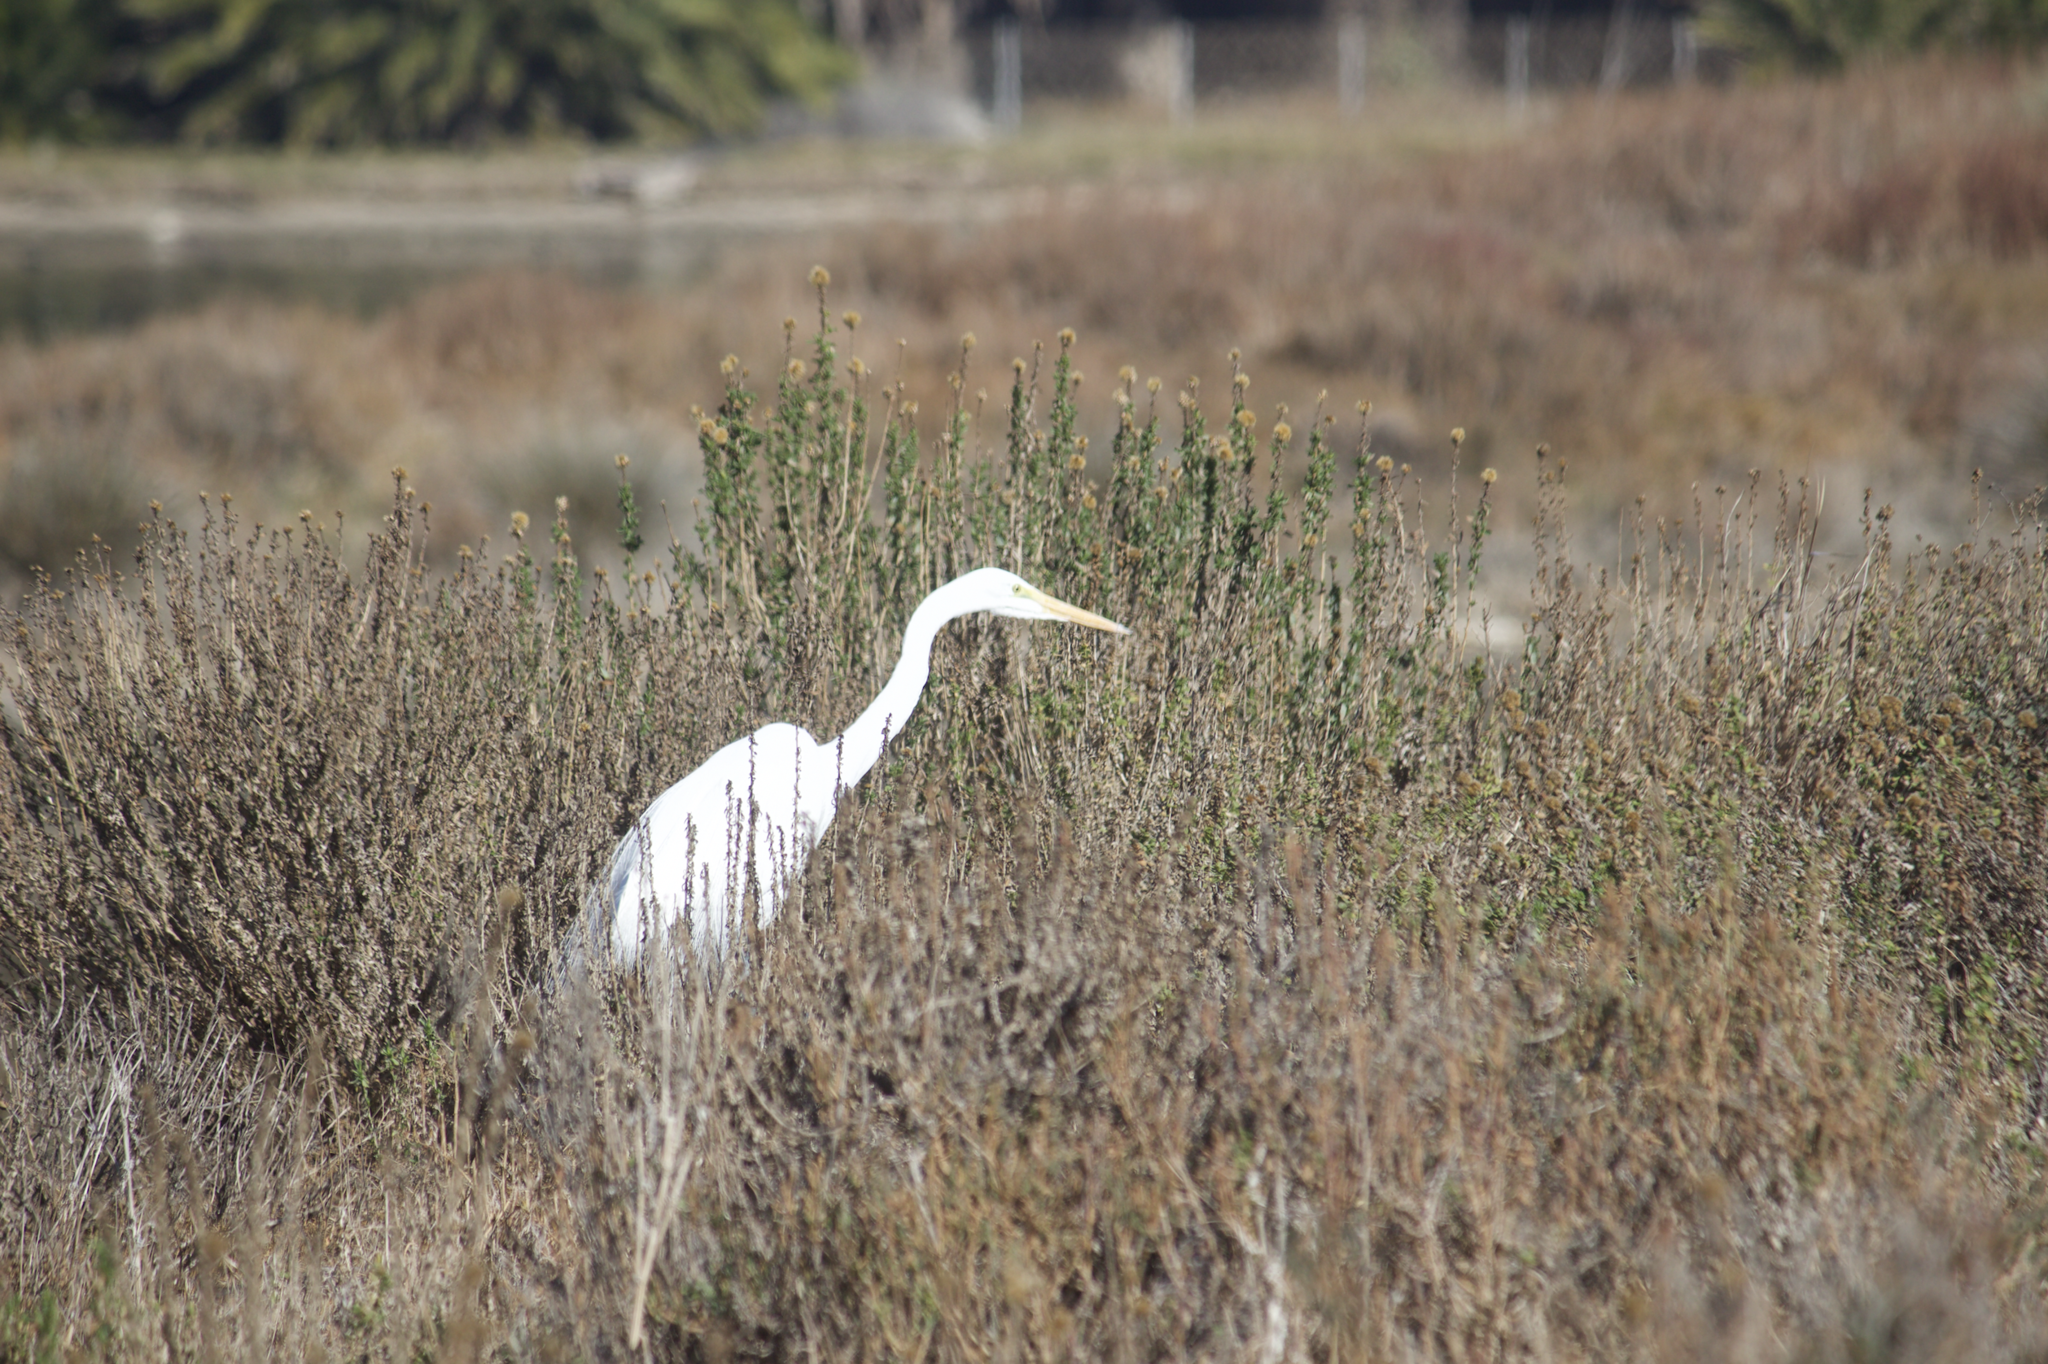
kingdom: Animalia
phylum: Chordata
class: Aves
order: Pelecaniformes
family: Ardeidae
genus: Ardea
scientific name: Ardea alba
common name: Great egret
